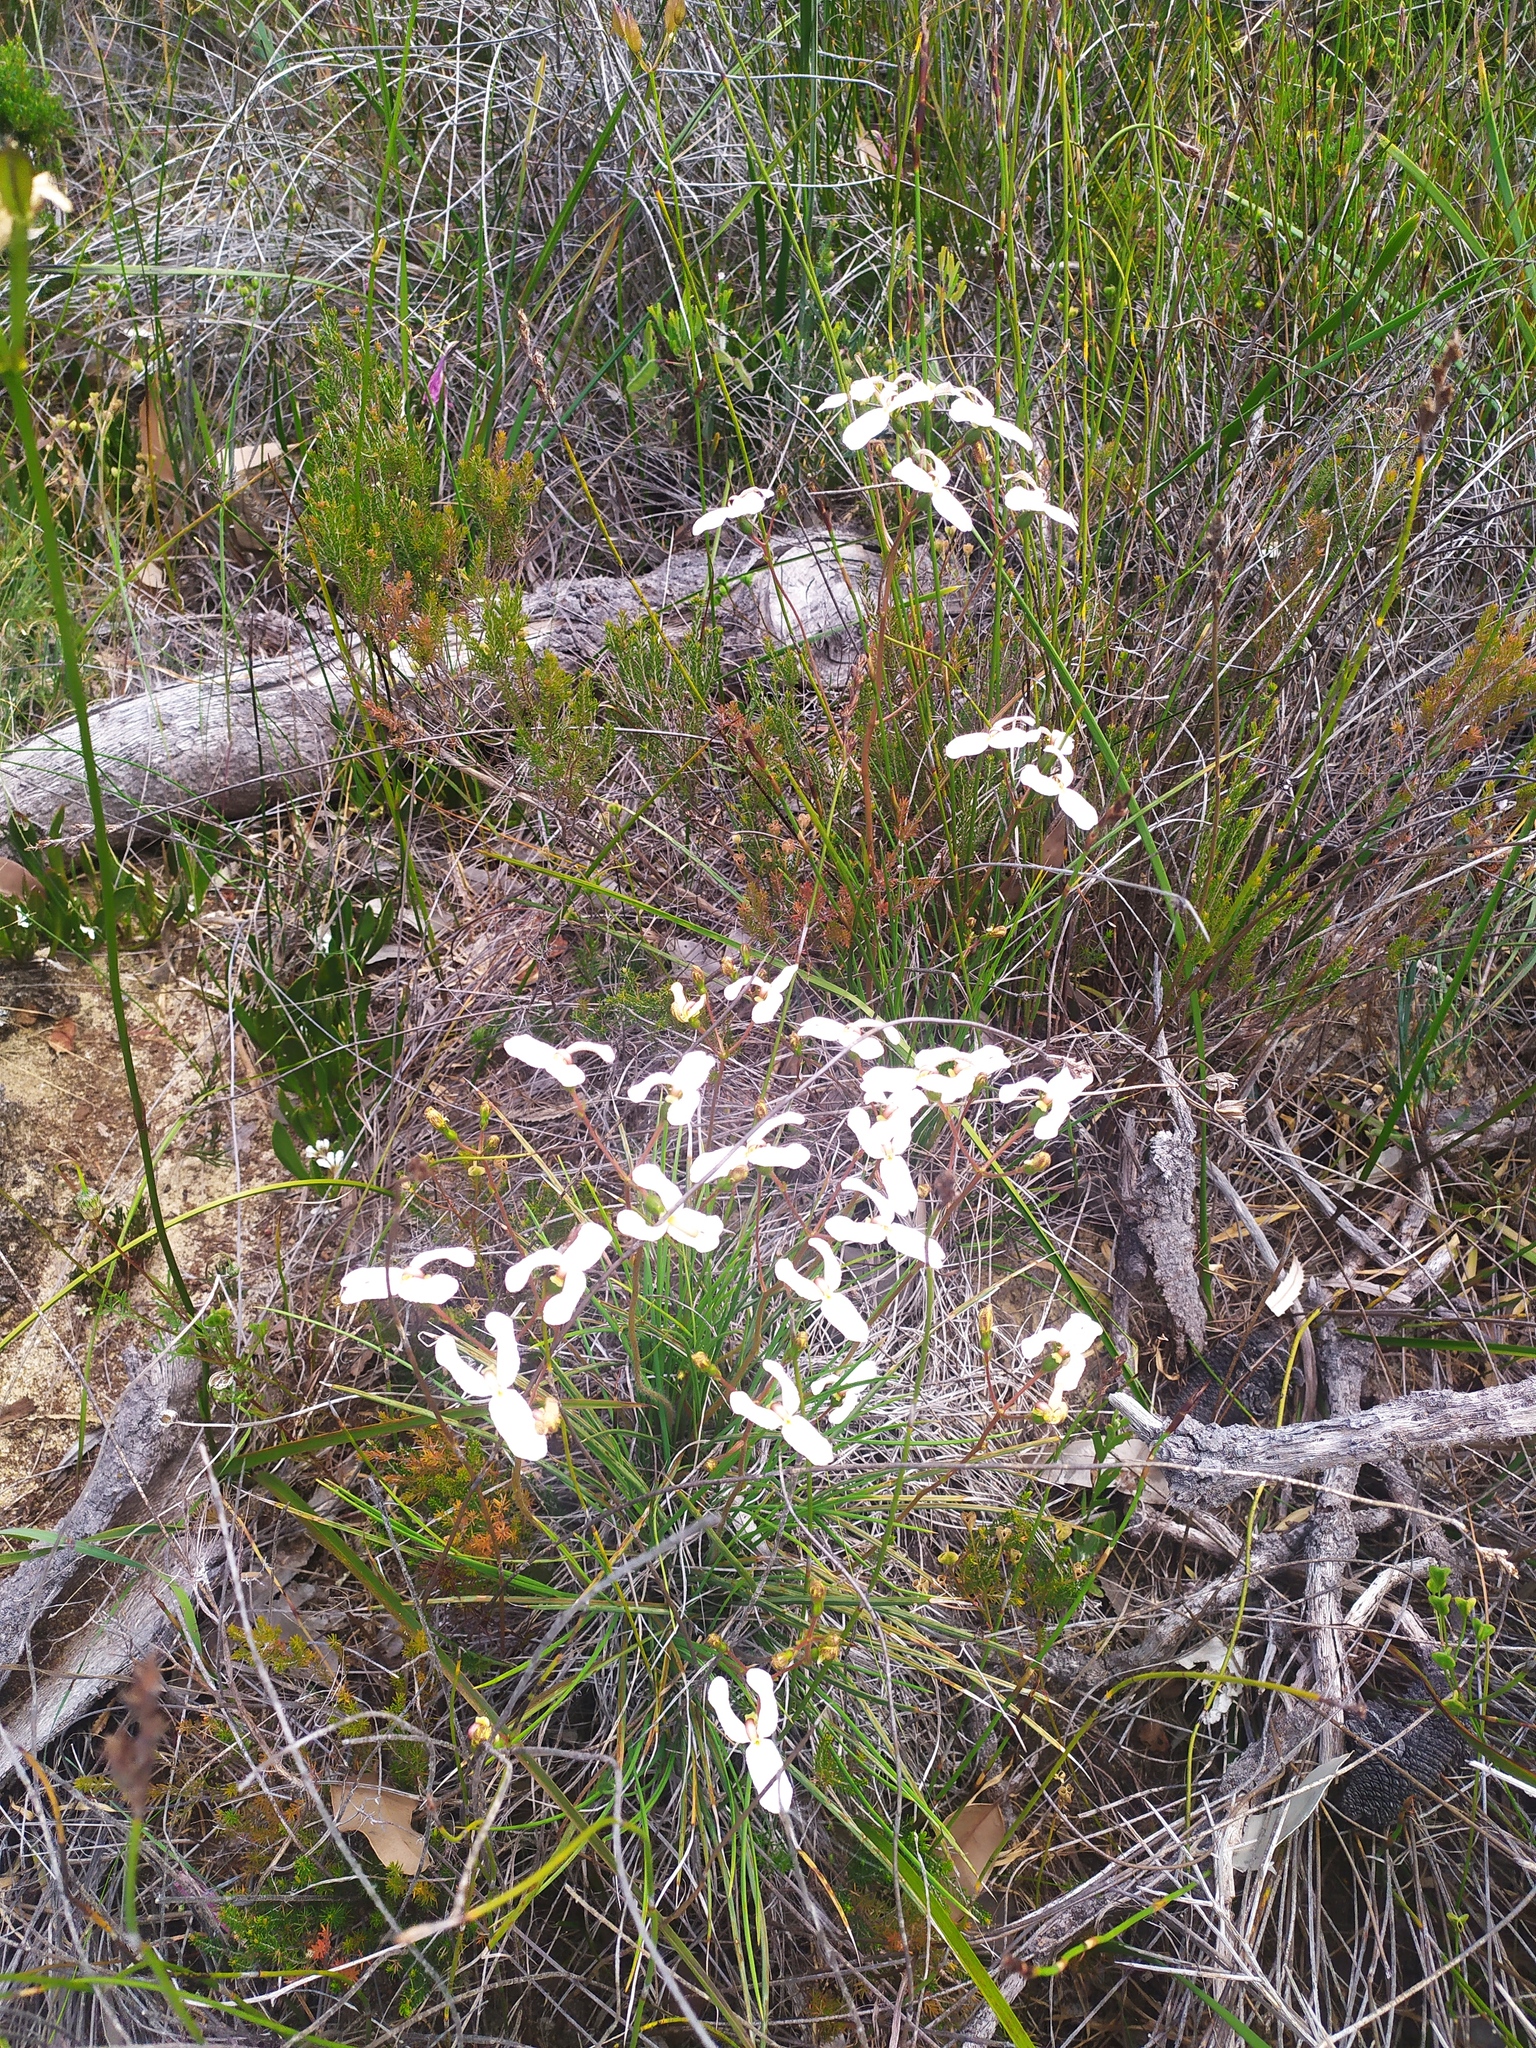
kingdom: Plantae
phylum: Tracheophyta
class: Magnoliopsida
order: Asterales
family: Stylidiaceae
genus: Stylidium
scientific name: Stylidium schoenoides
